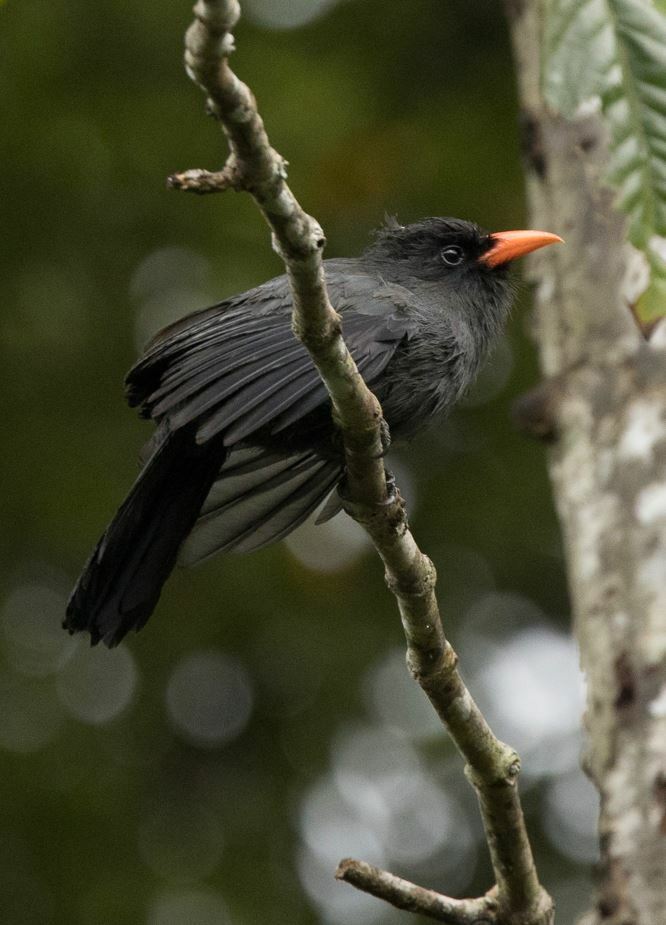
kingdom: Animalia
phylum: Chordata
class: Aves
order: Piciformes
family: Bucconidae
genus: Monasa
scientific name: Monasa nigrifrons
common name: Black-fronted nunbird
